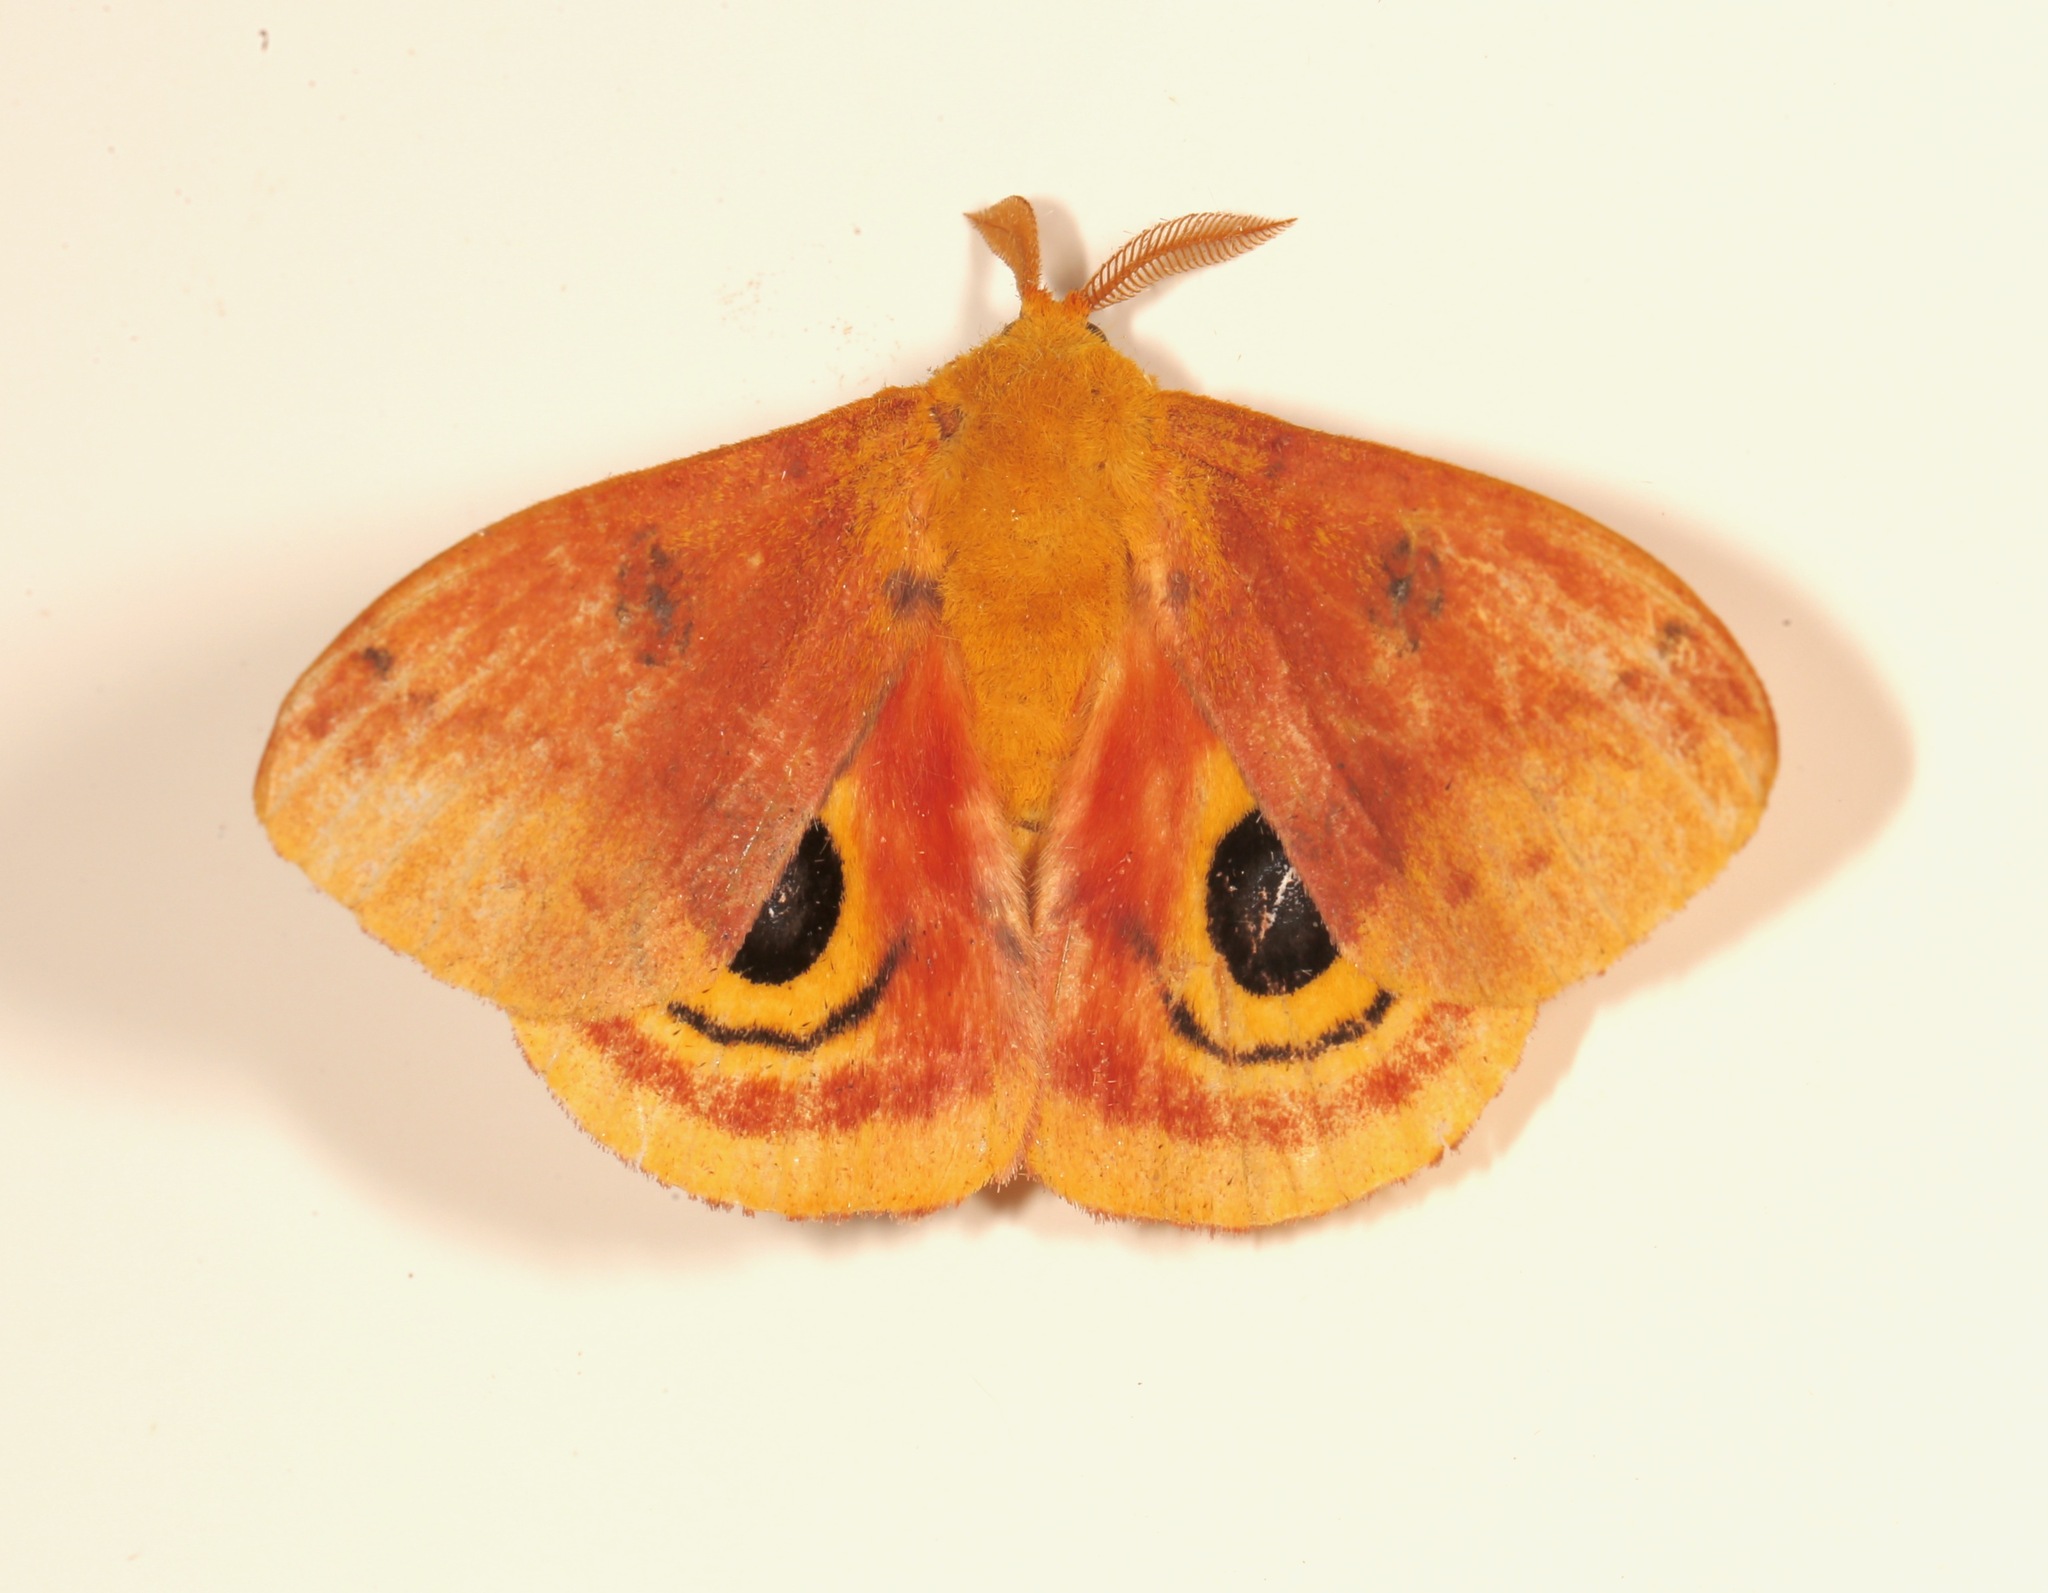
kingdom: Animalia
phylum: Arthropoda
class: Insecta
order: Lepidoptera
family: Saturniidae
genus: Automeris
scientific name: Automeris io
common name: Io moth
